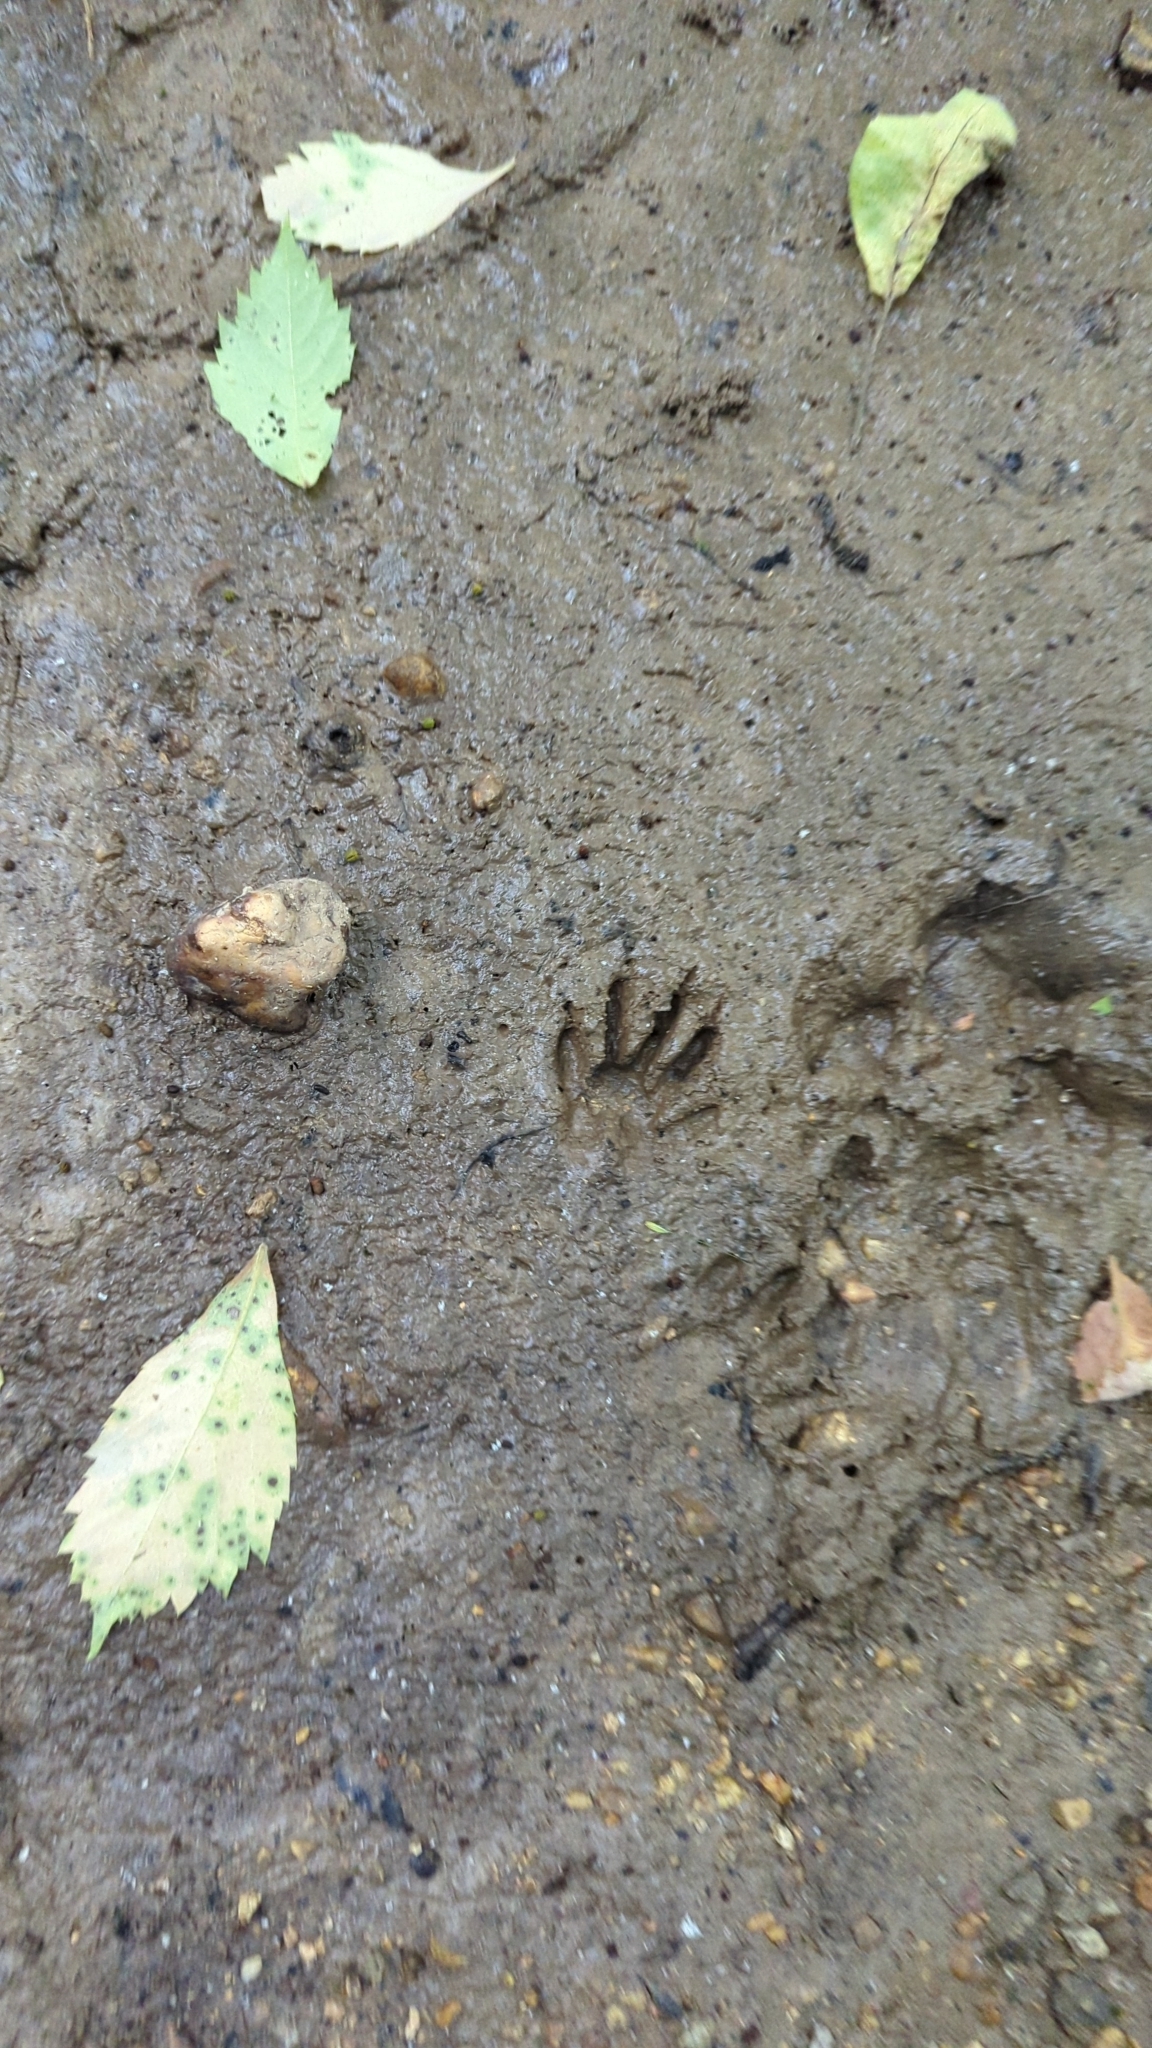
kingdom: Animalia
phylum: Chordata
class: Mammalia
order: Carnivora
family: Procyonidae
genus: Procyon
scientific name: Procyon lotor
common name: Raccoon
